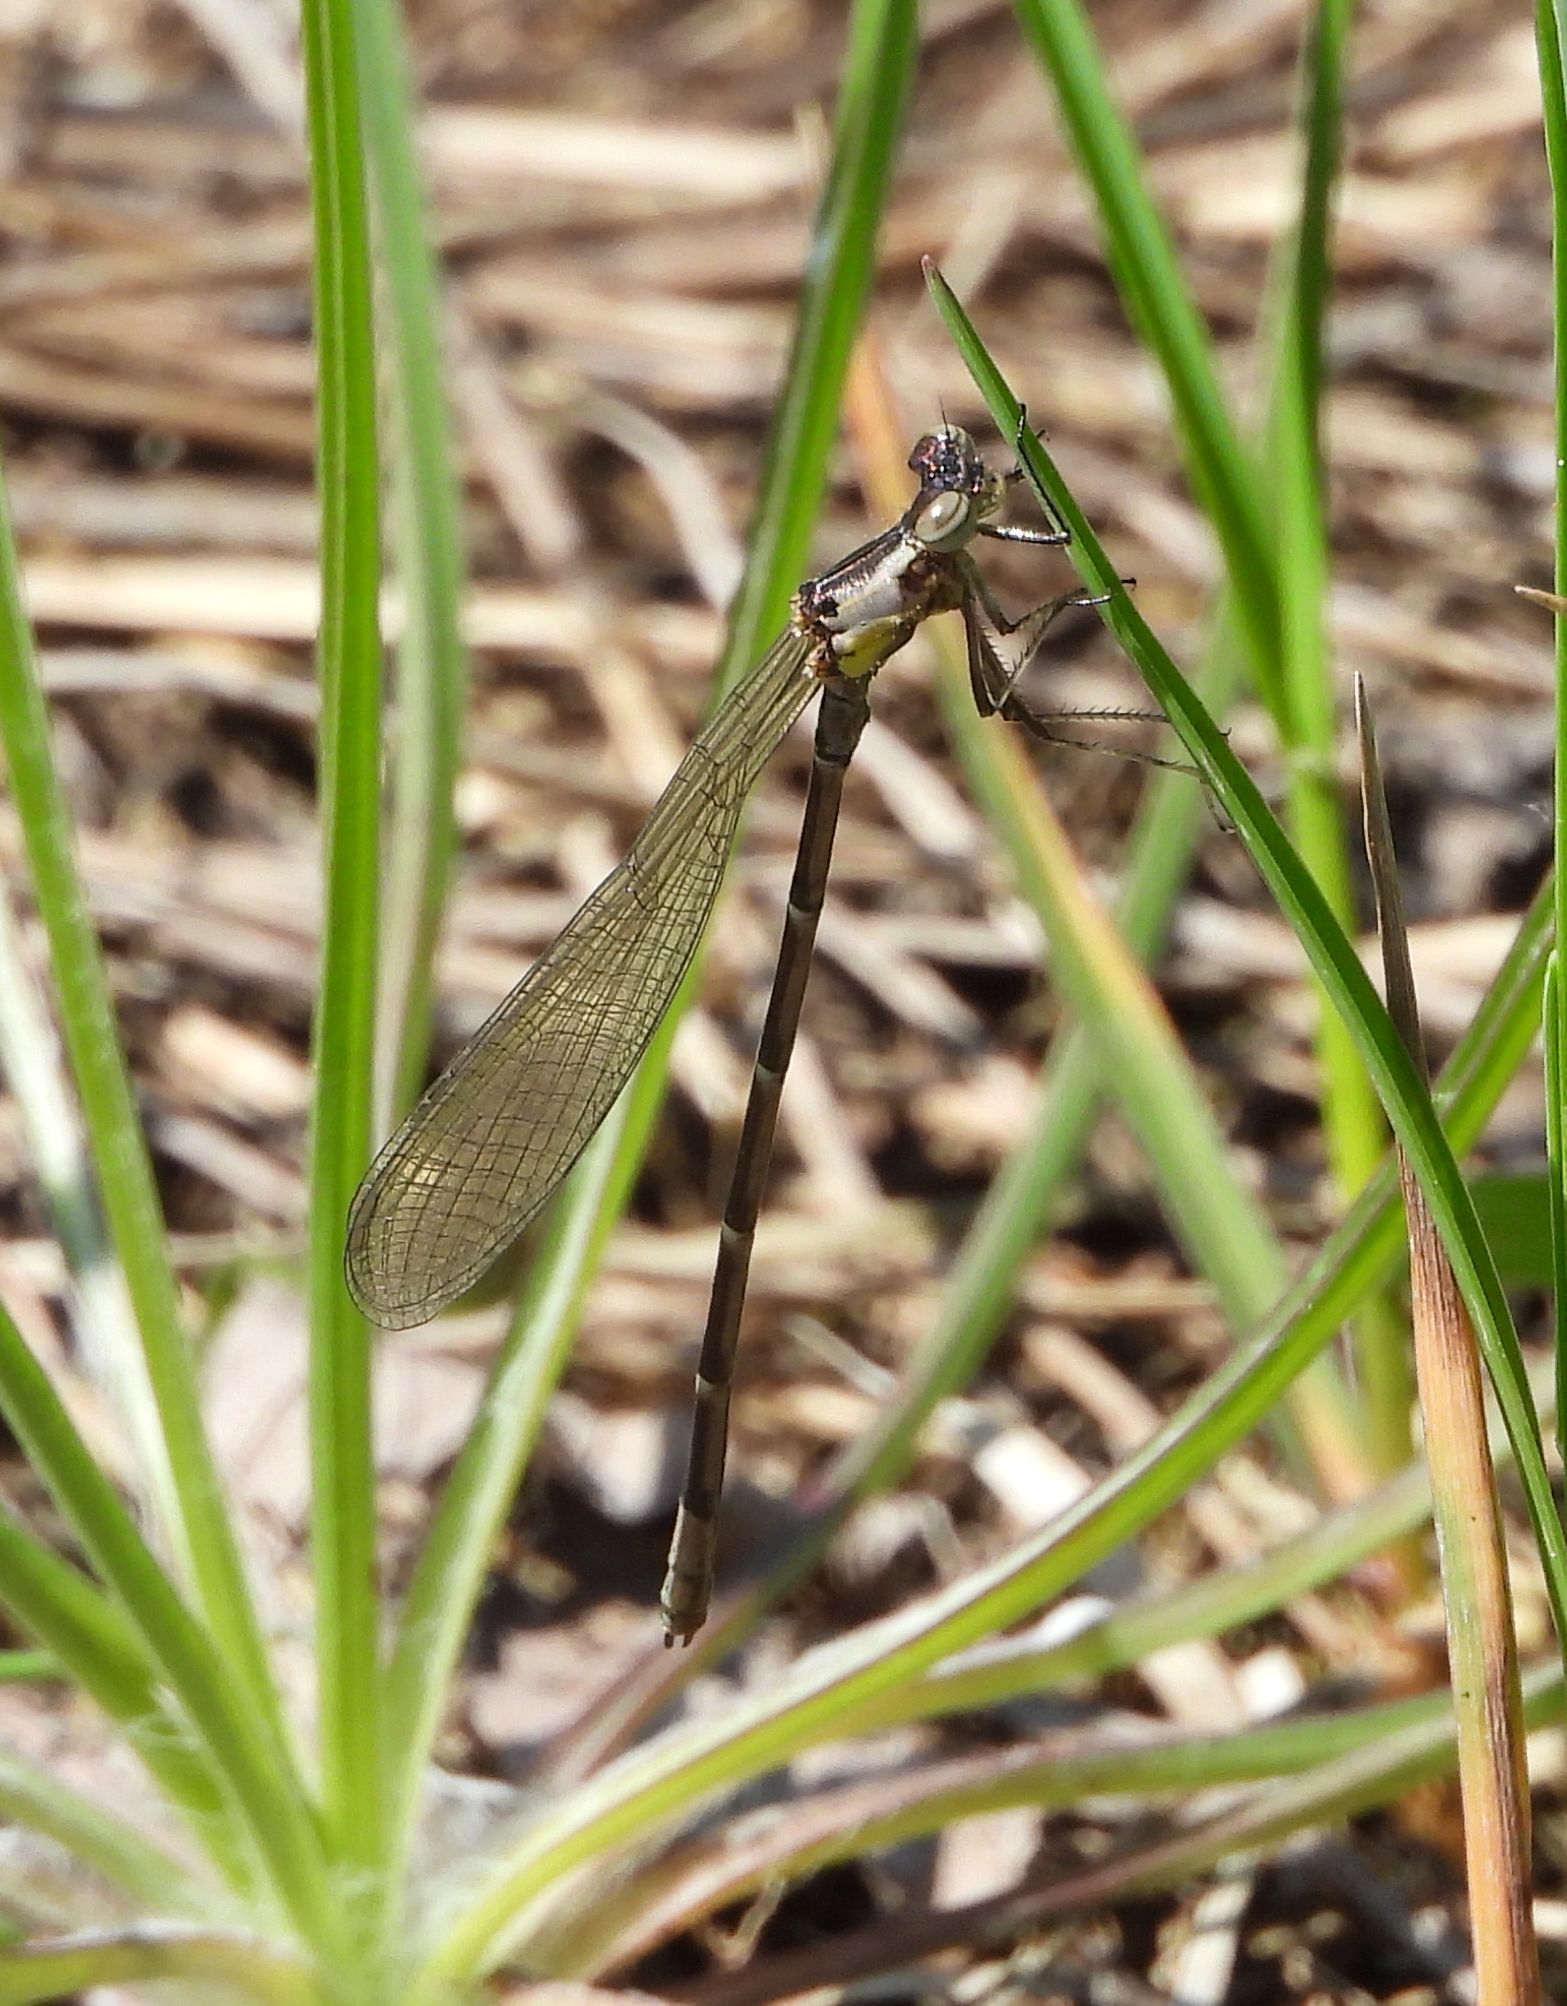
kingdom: Animalia
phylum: Arthropoda
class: Insecta
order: Odonata
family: Coenagrionidae
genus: Chromagrion
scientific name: Chromagrion conditum
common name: Aurora damsel
